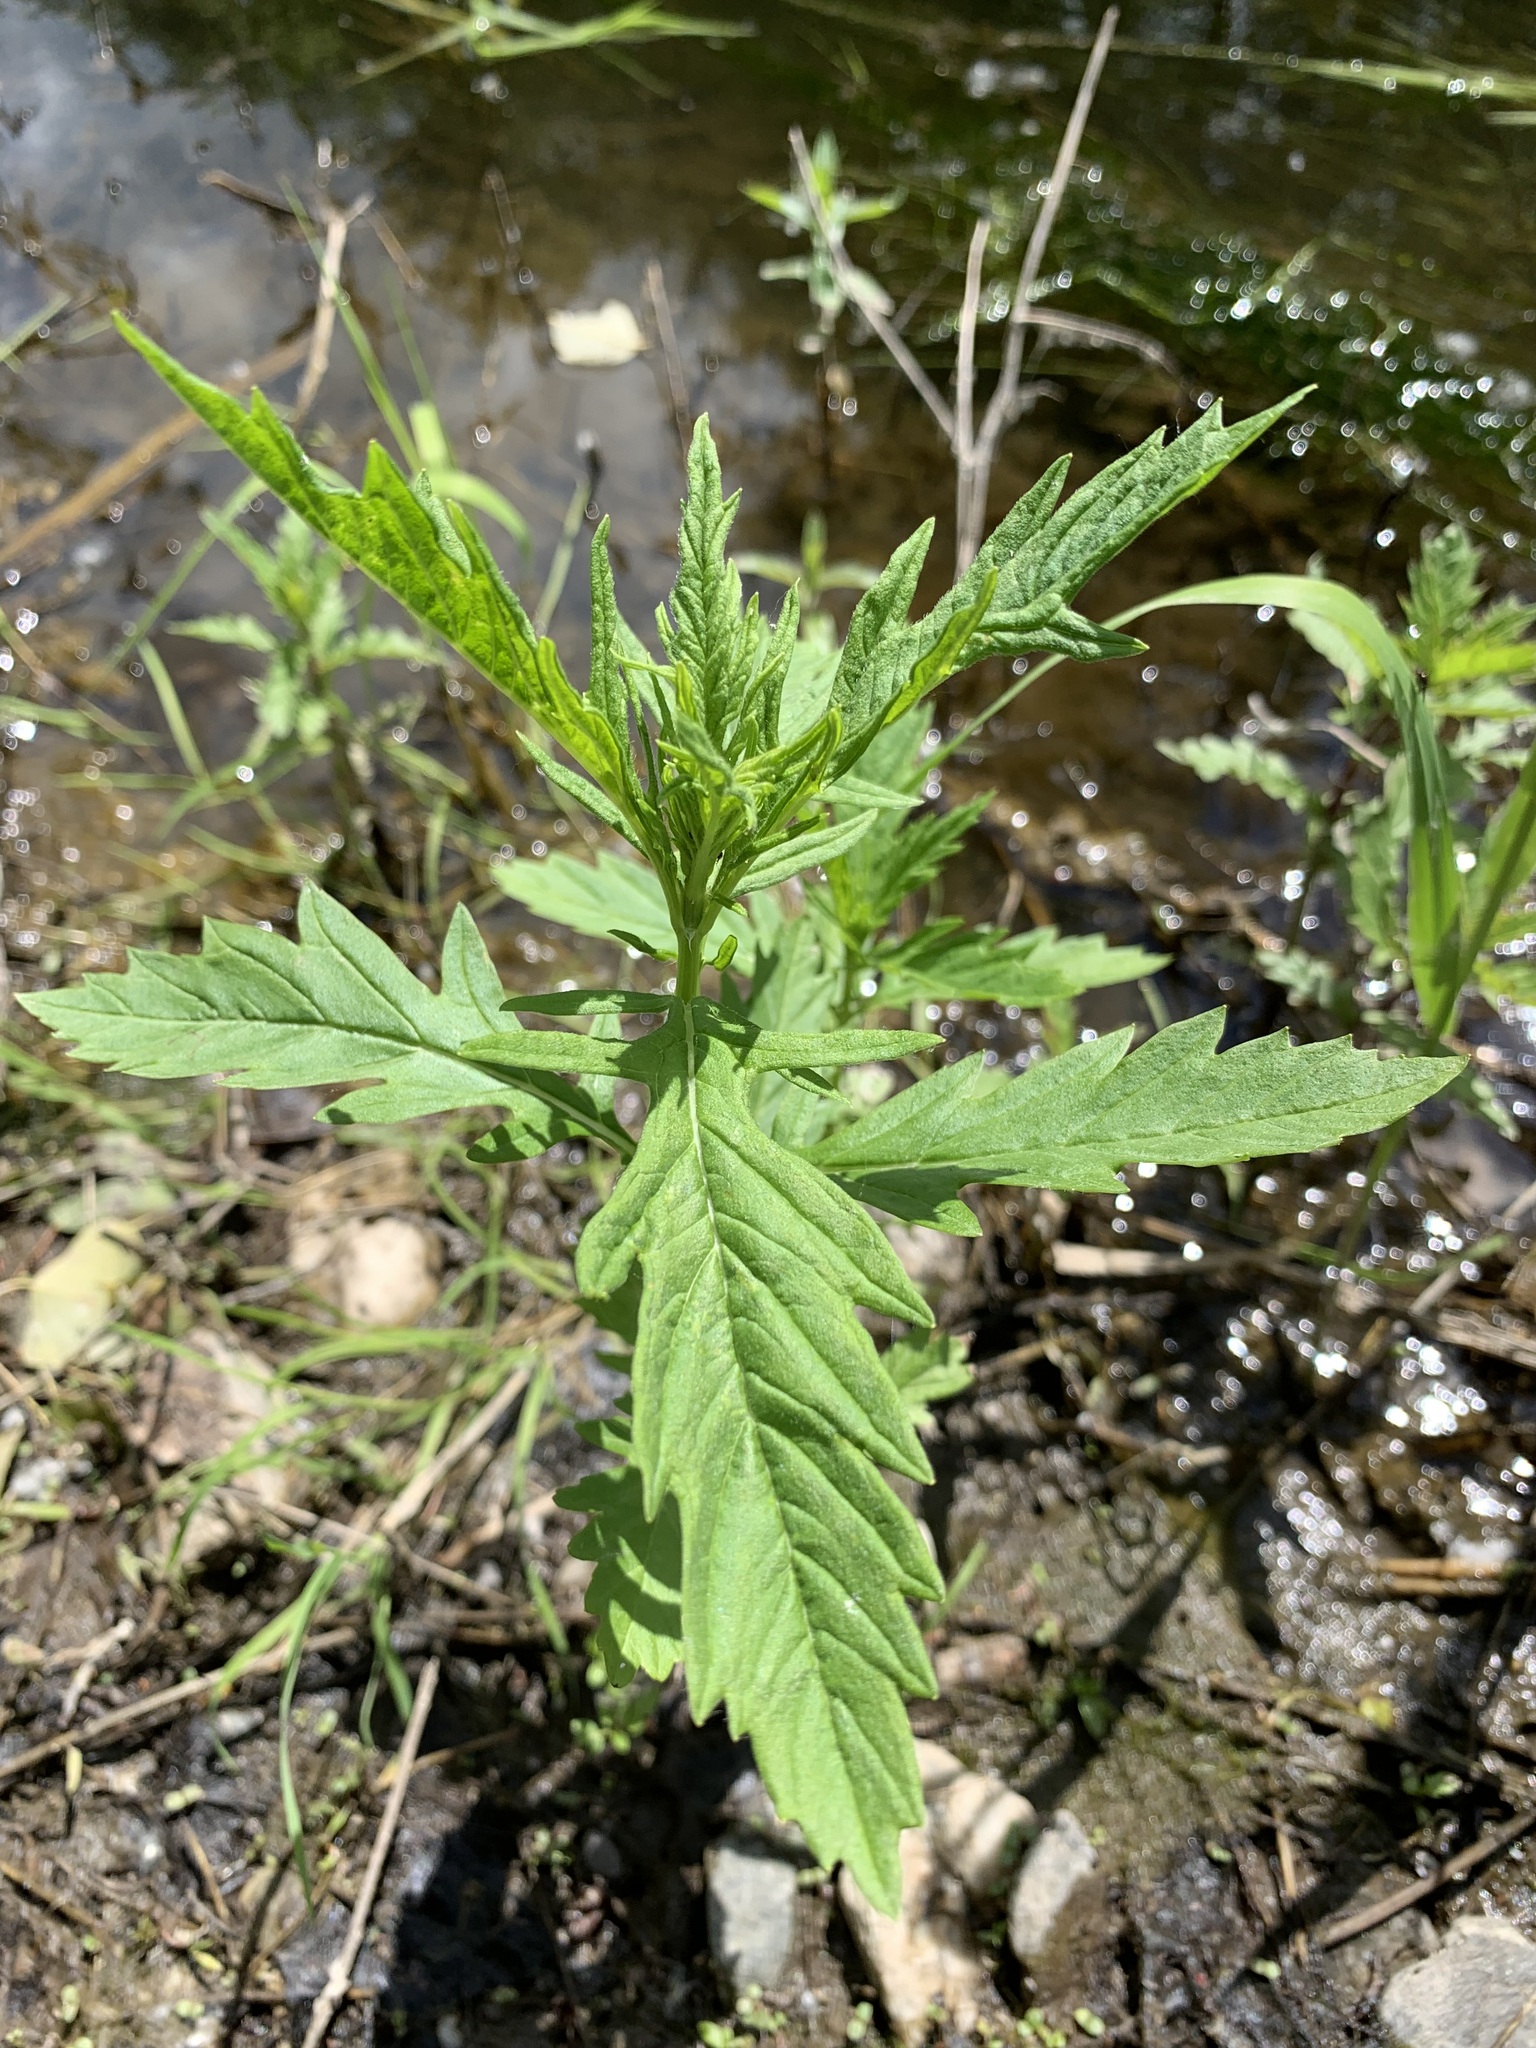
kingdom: Plantae
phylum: Tracheophyta
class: Magnoliopsida
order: Lamiales
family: Lamiaceae
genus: Lycopus
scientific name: Lycopus europaeus
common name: European bugleweed
